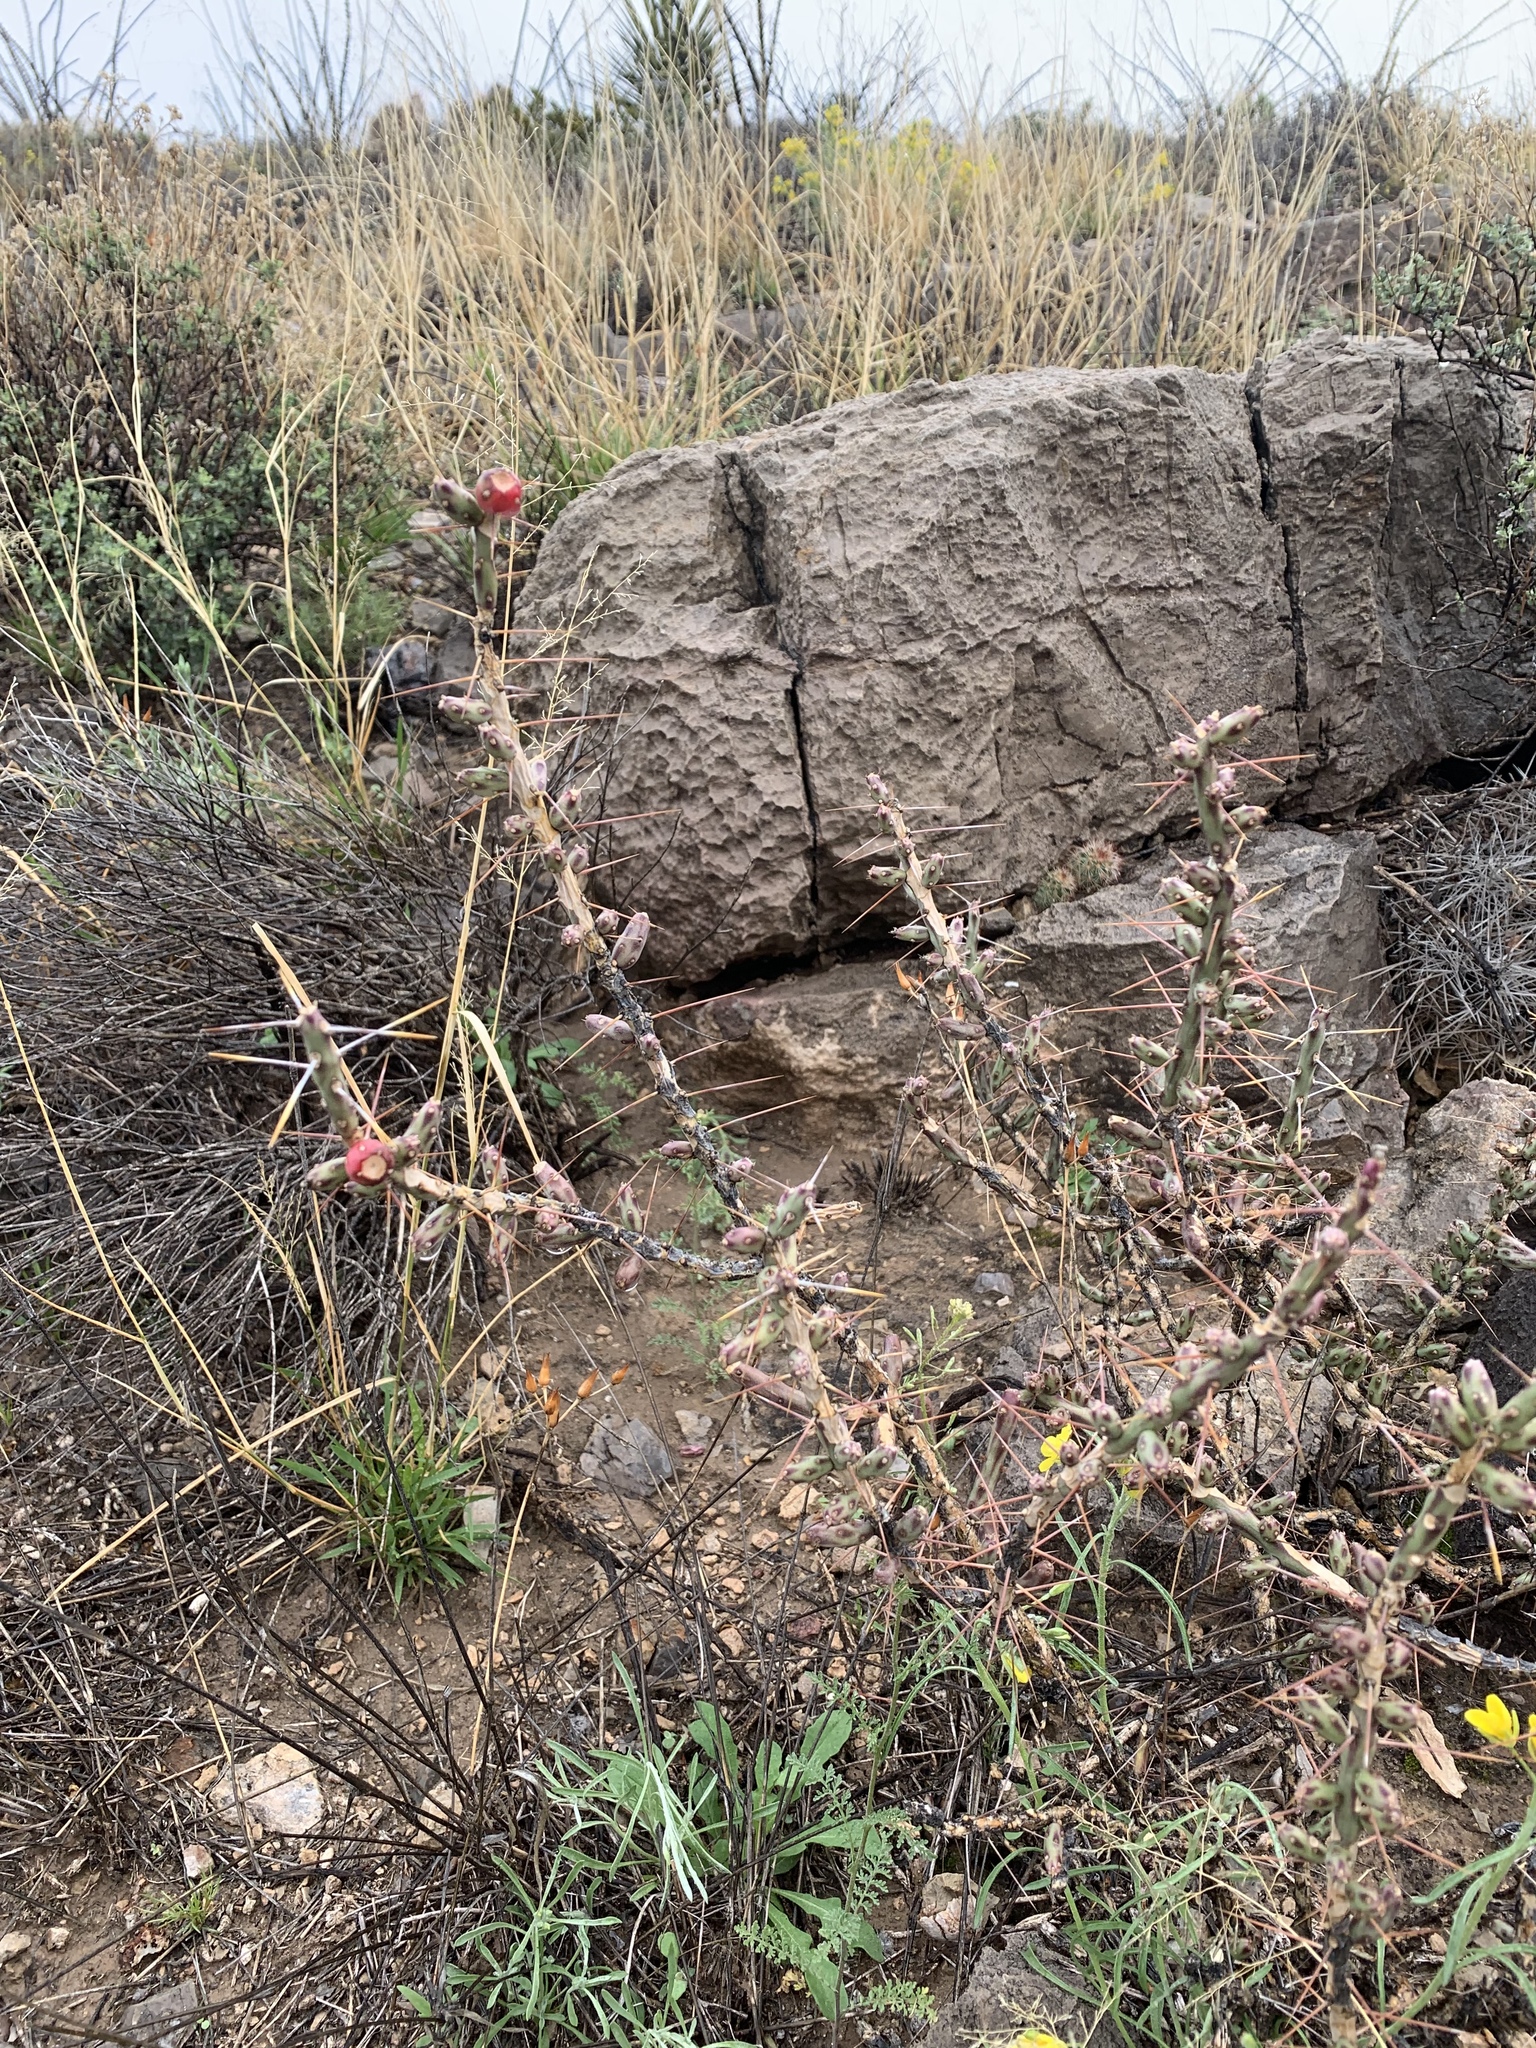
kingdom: Plantae
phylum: Tracheophyta
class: Magnoliopsida
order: Caryophyllales
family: Cactaceae
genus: Cylindropuntia
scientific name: Cylindropuntia leptocaulis
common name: Christmas cactus
